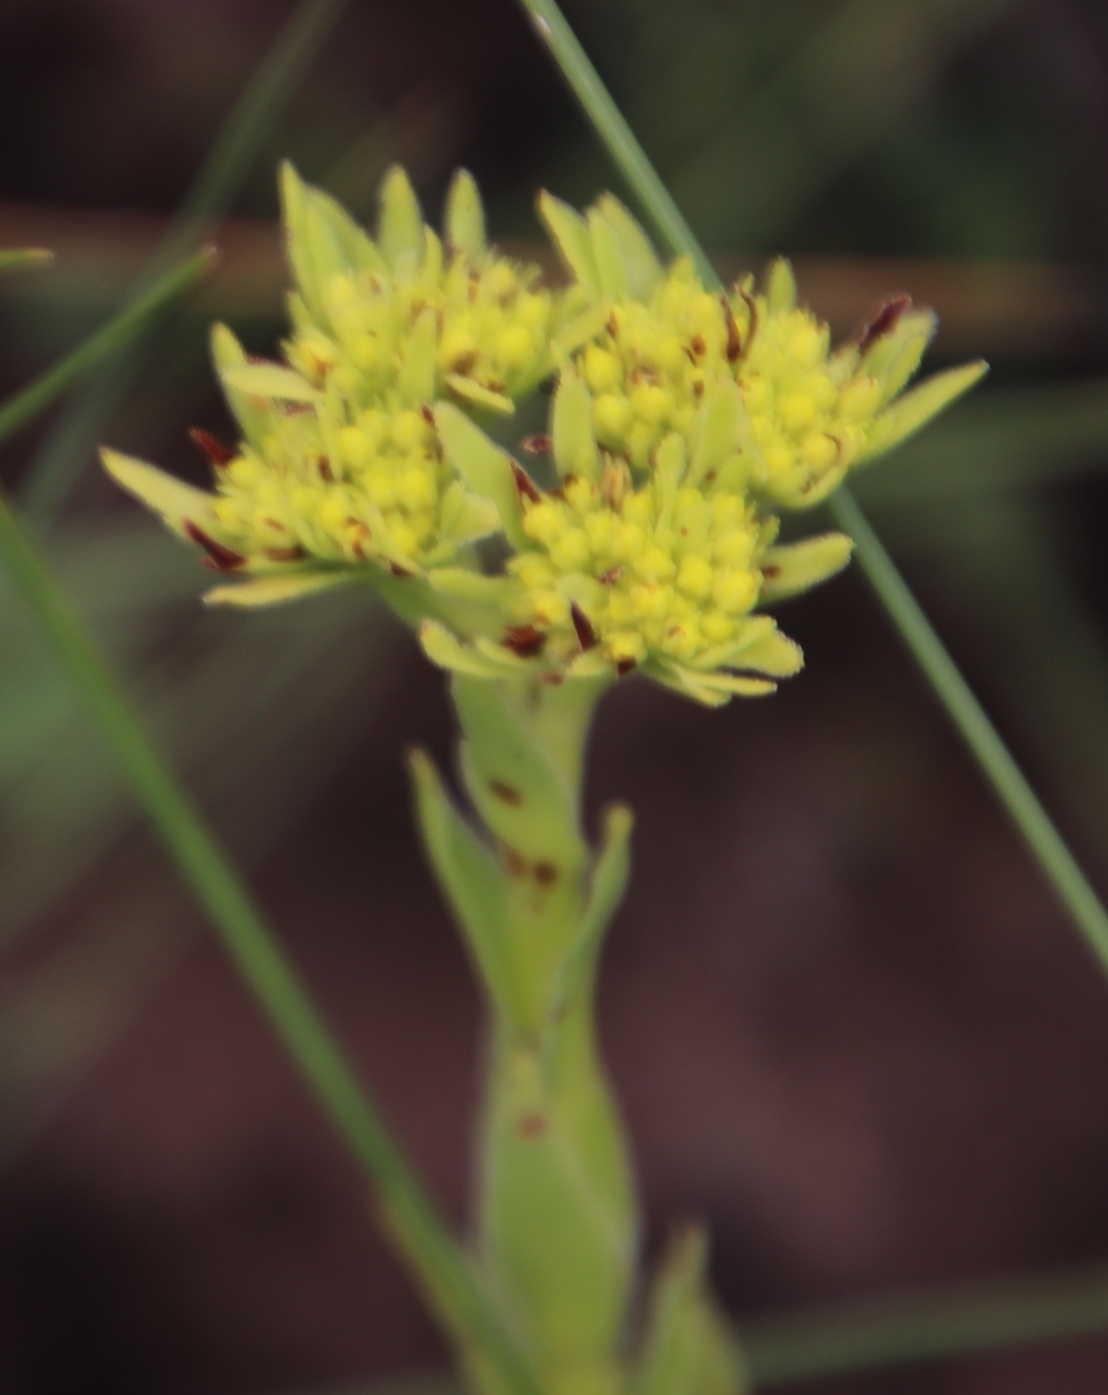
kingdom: Plantae
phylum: Tracheophyta
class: Magnoliopsida
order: Saxifragales
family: Crassulaceae
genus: Crassula
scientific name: Crassula vaginata
